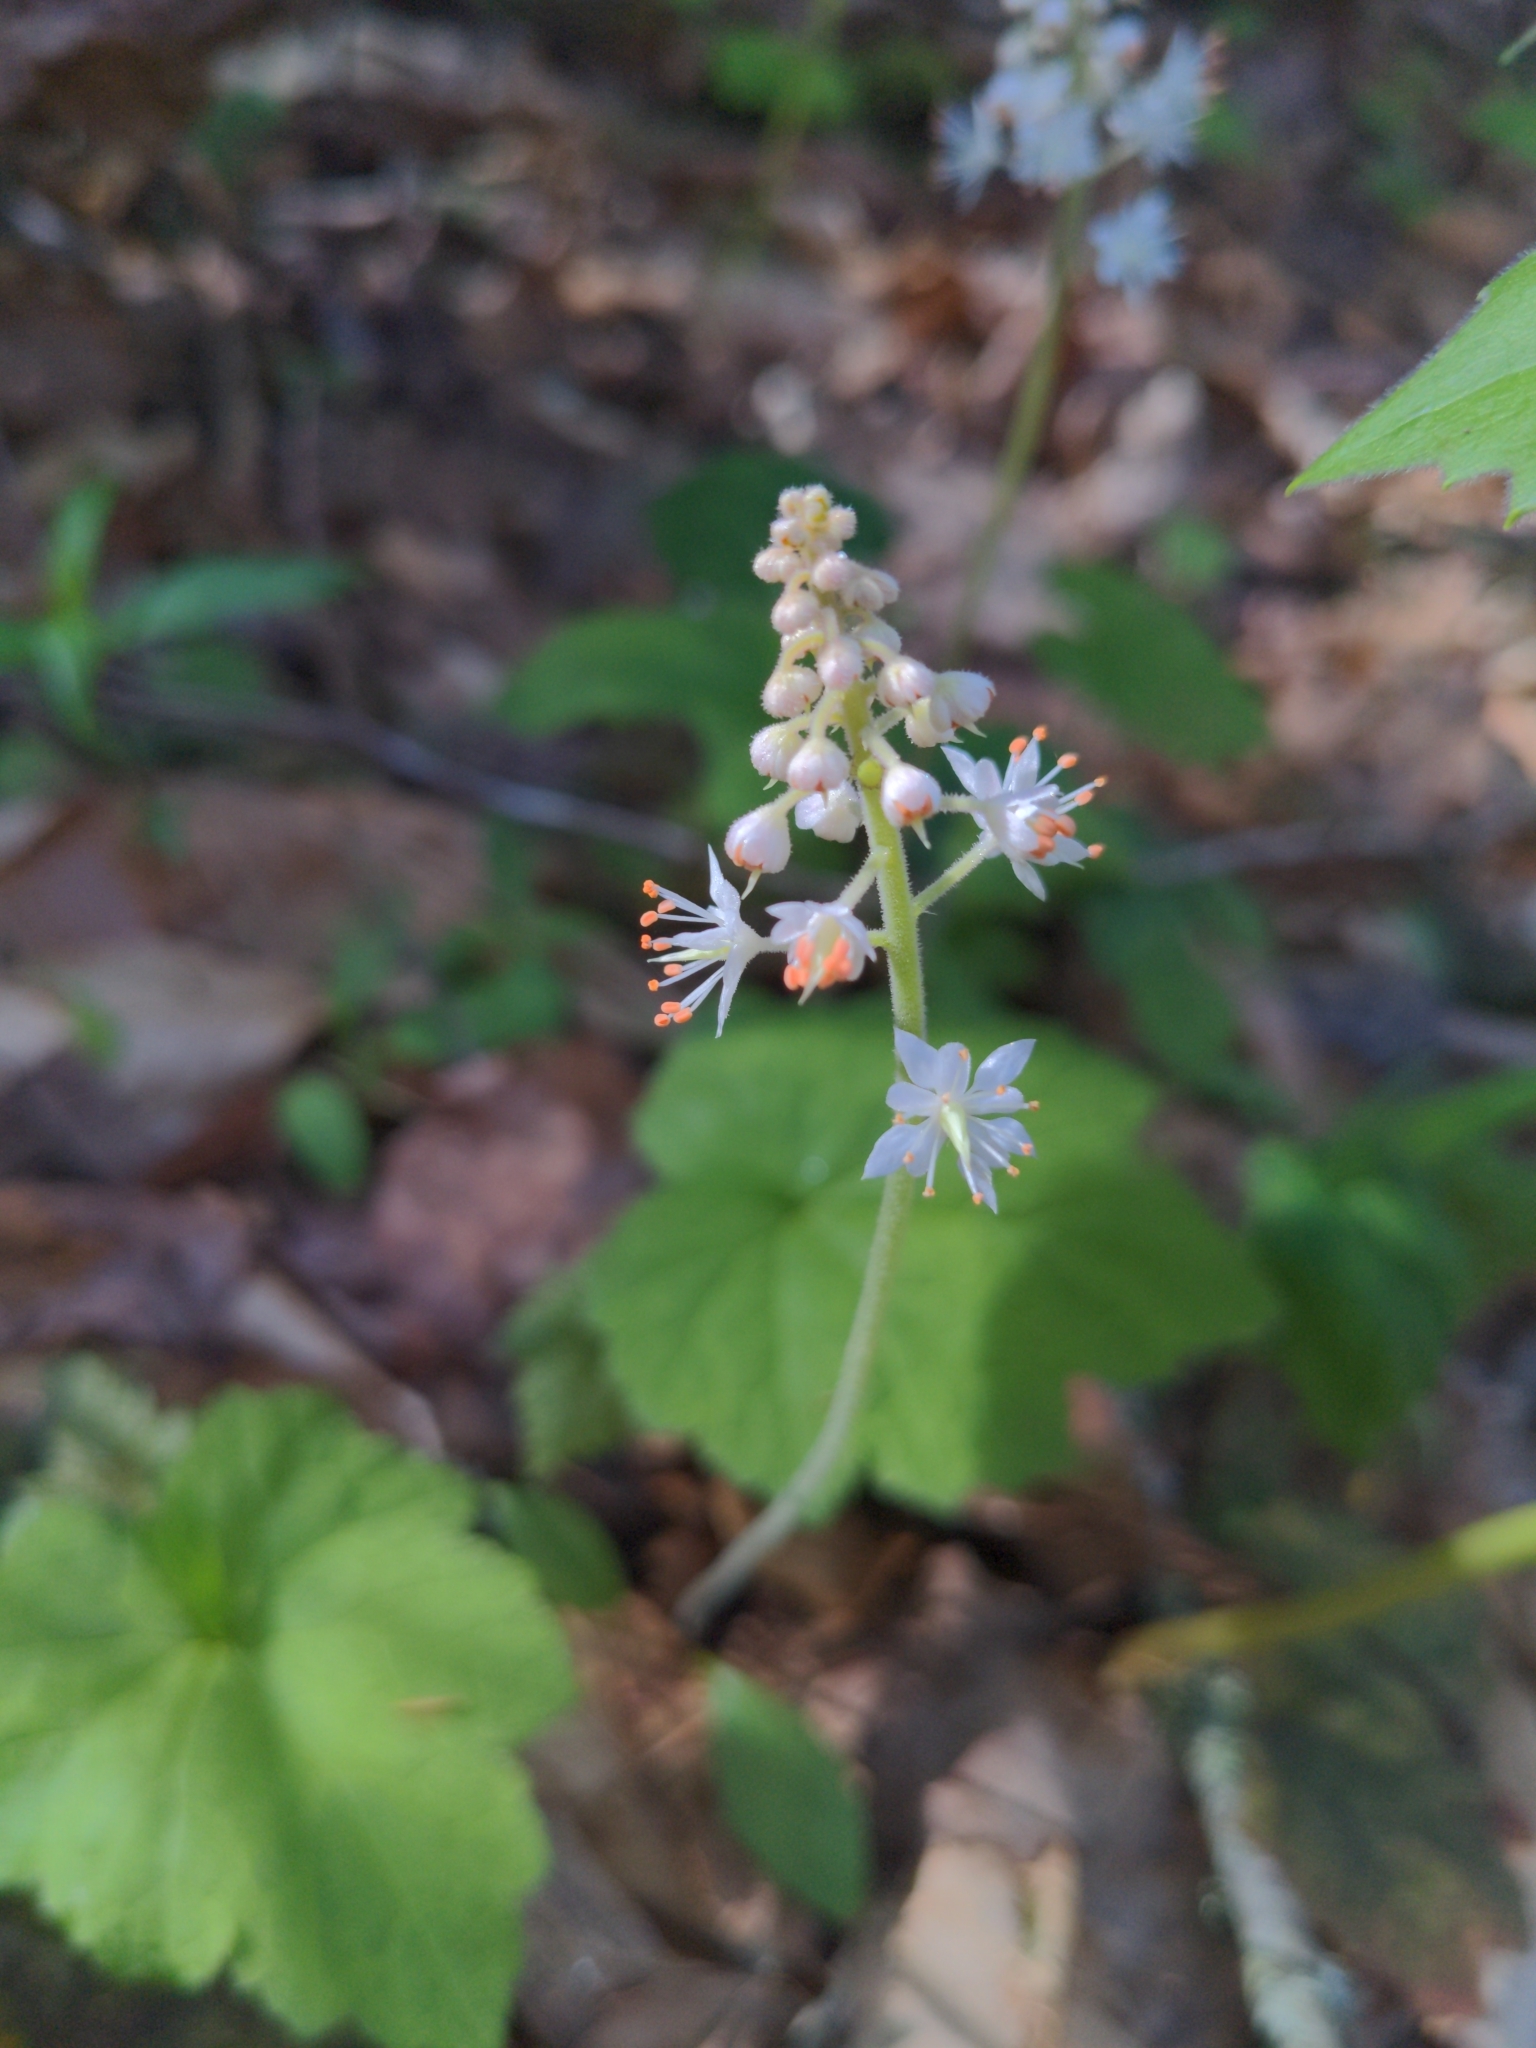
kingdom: Plantae
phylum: Tracheophyta
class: Magnoliopsida
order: Saxifragales
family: Saxifragaceae
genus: Tiarella
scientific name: Tiarella stolonifera
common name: Stoloniferous foamflower
